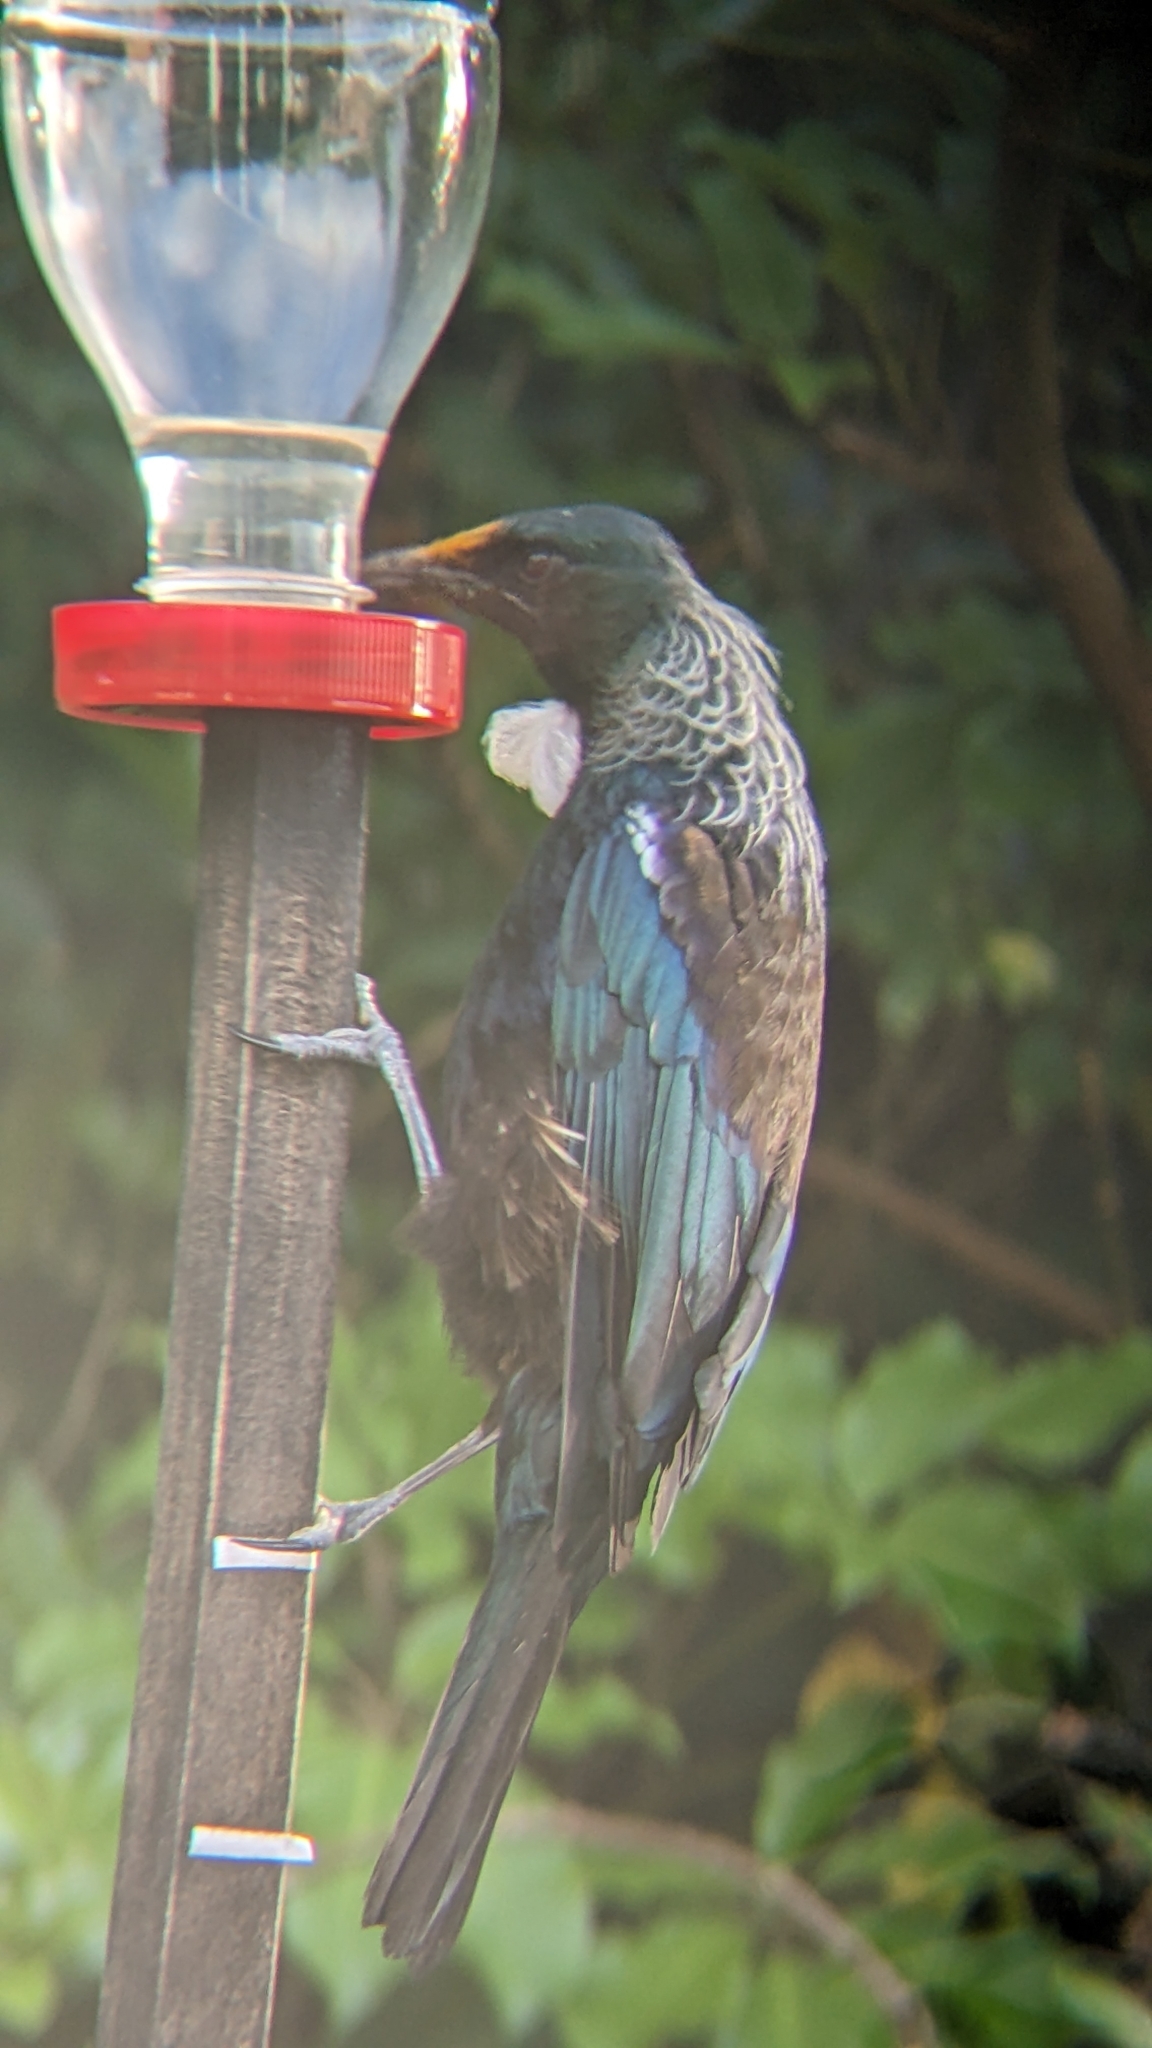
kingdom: Animalia
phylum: Chordata
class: Aves
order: Passeriformes
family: Meliphagidae
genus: Prosthemadera
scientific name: Prosthemadera novaeseelandiae
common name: Tui
